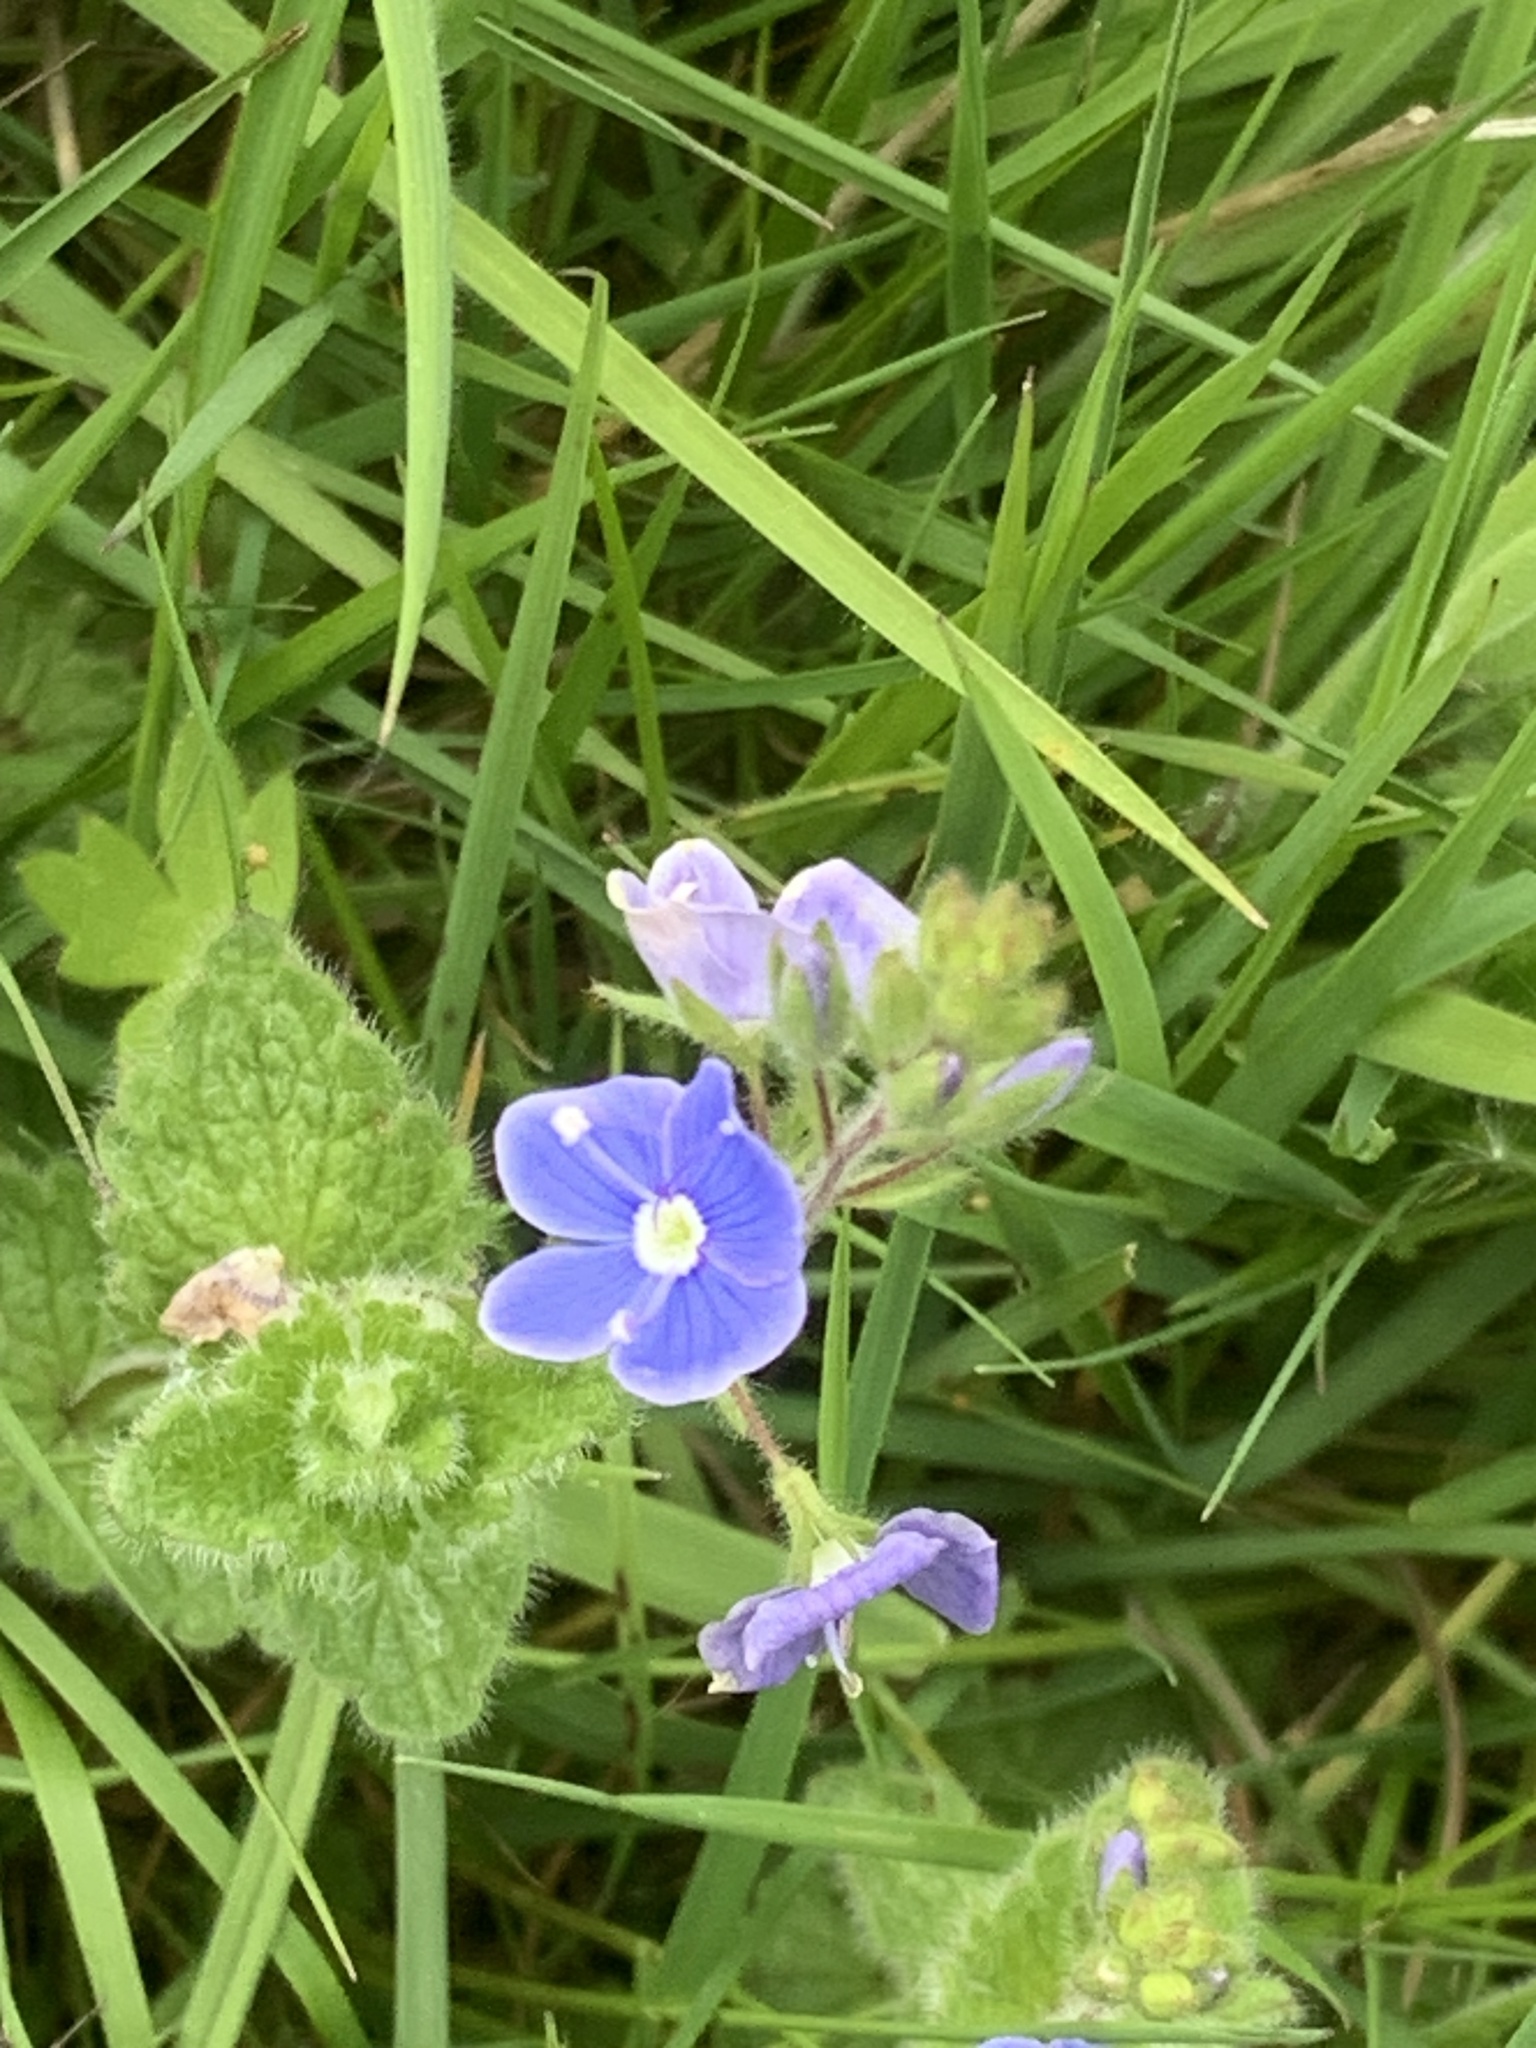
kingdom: Plantae
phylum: Tracheophyta
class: Magnoliopsida
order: Lamiales
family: Plantaginaceae
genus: Veronica
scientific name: Veronica chamaedrys
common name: Germander speedwell
